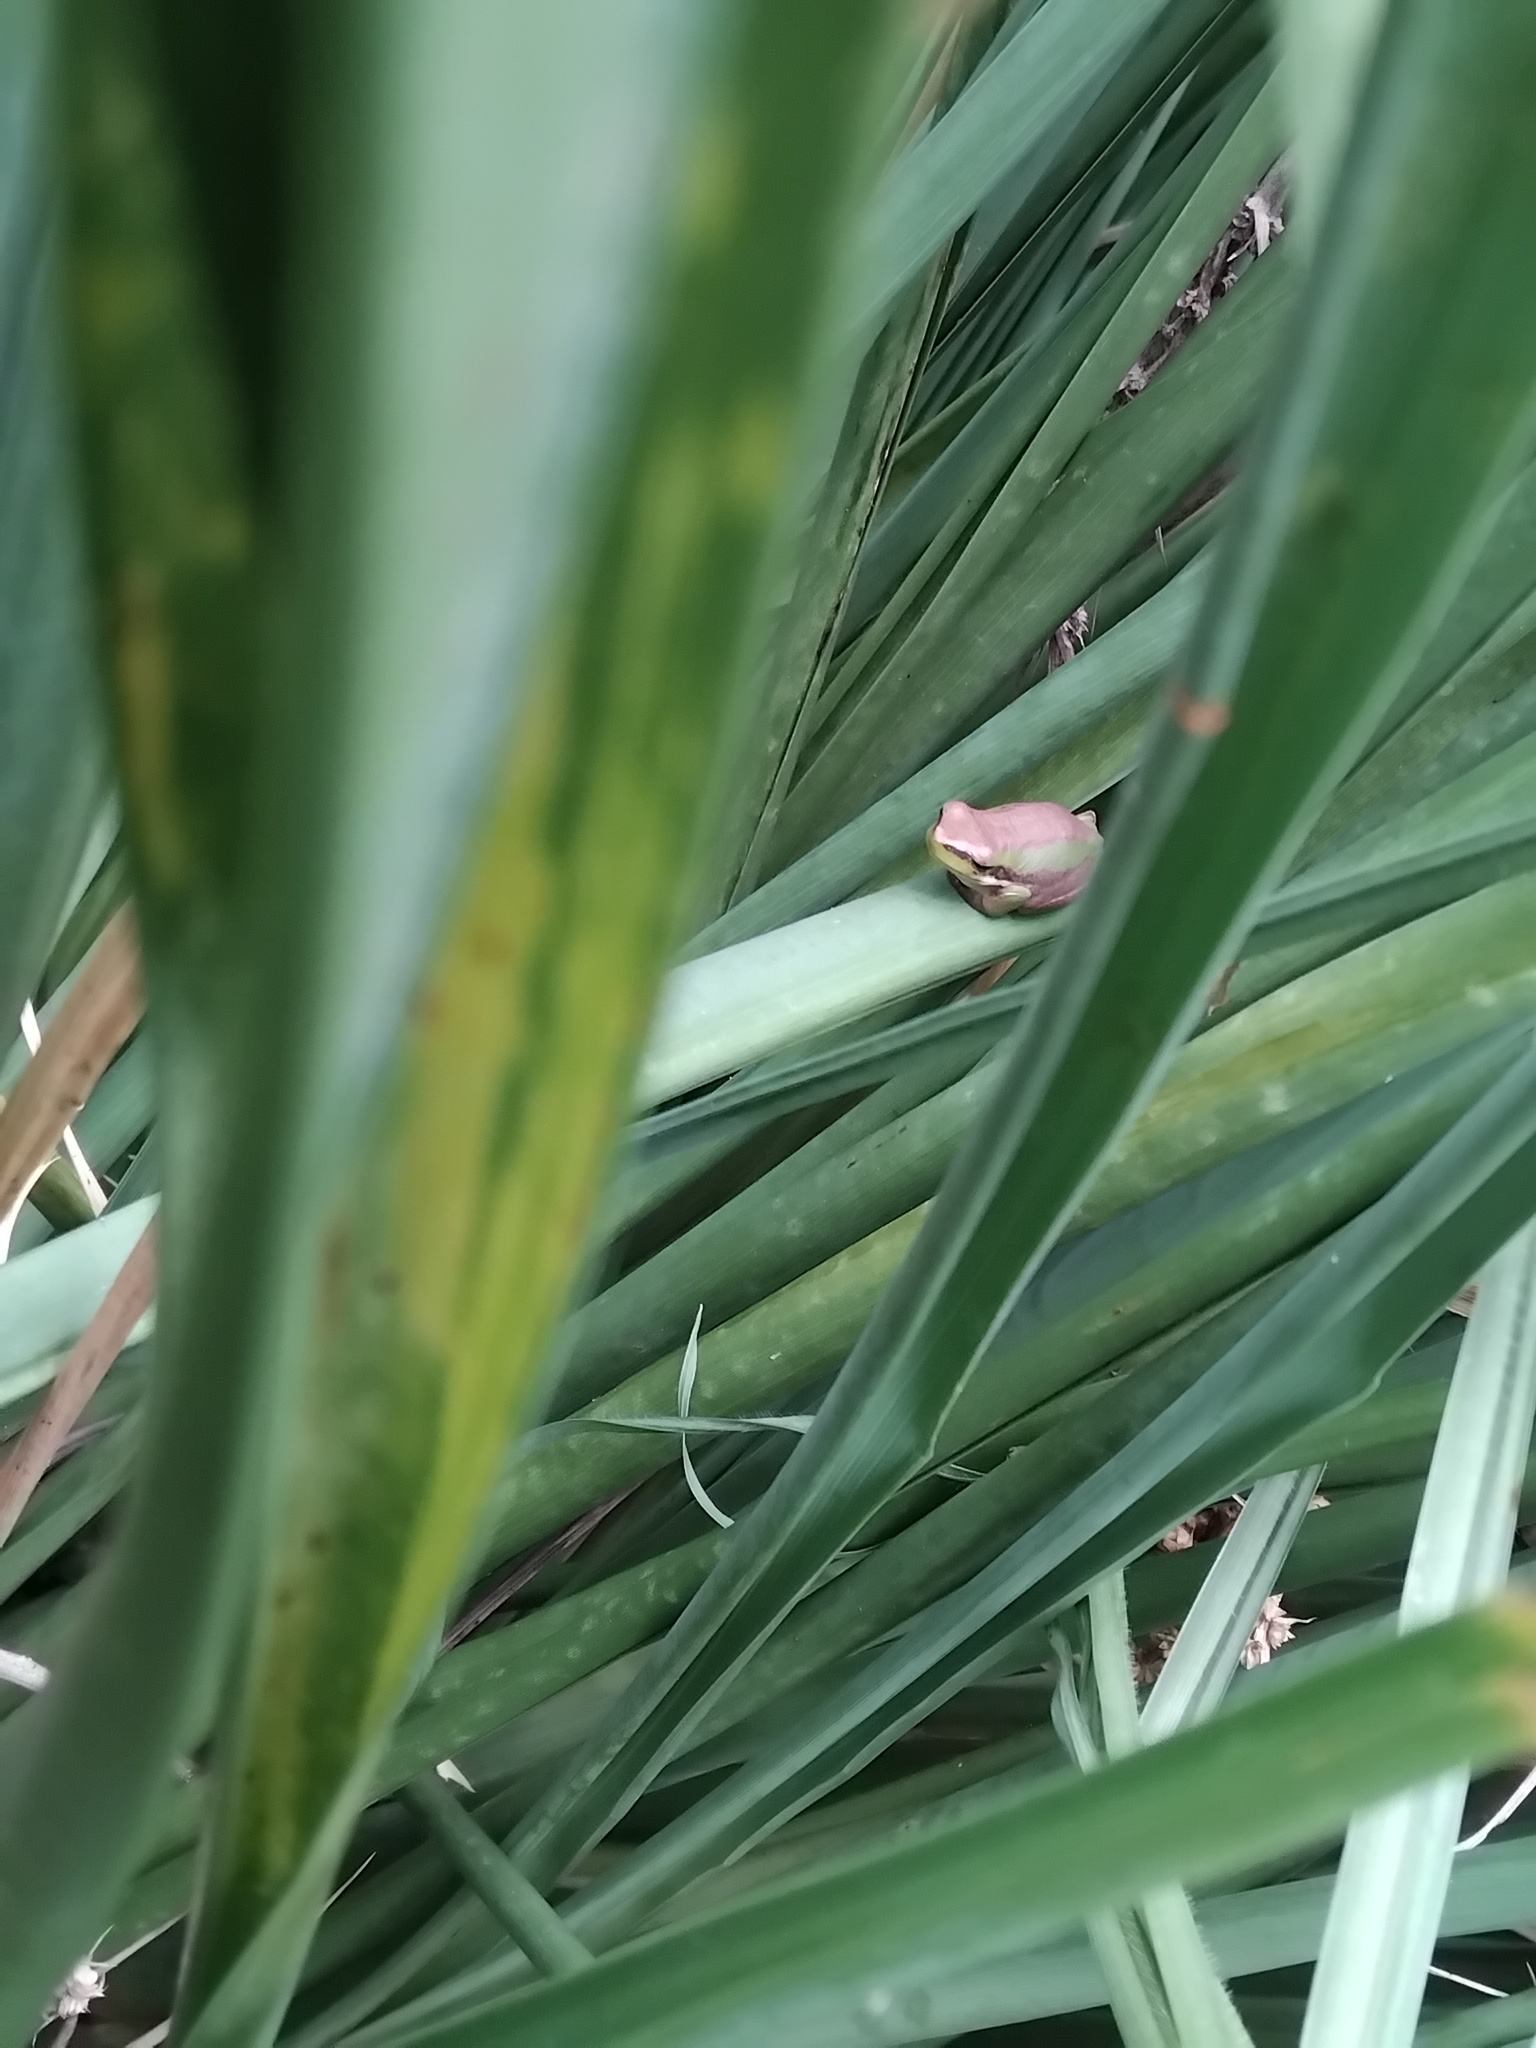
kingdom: Animalia
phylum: Chordata
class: Amphibia
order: Anura
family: Pelodryadidae
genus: Litoria
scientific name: Litoria fallax
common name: Eastern dwarf treefrog
